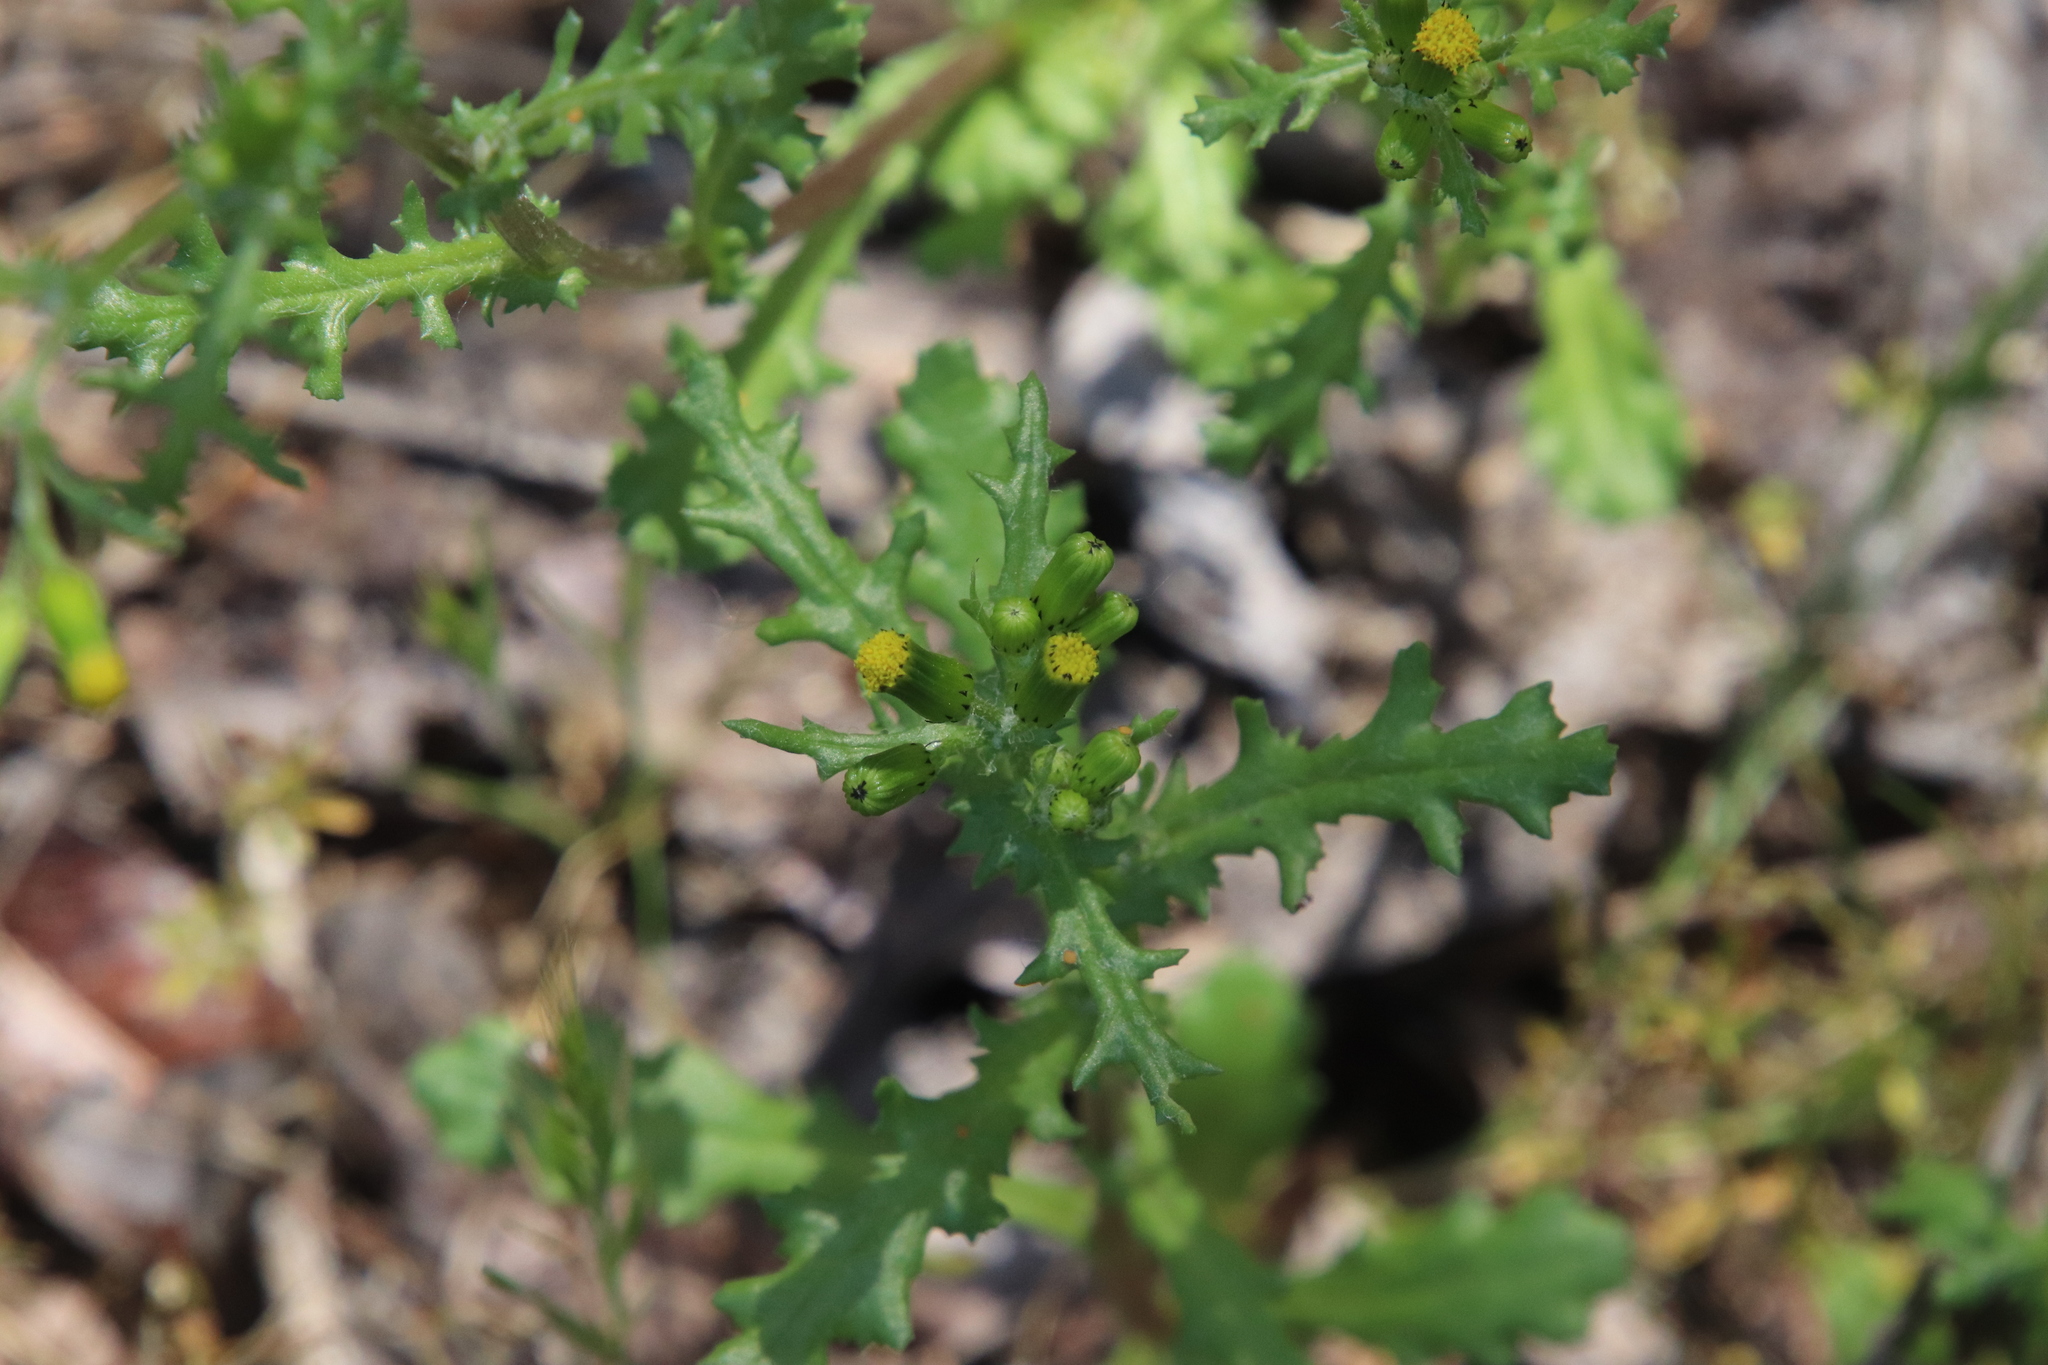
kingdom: Plantae
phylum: Tracheophyta
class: Magnoliopsida
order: Asterales
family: Asteraceae
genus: Senecio
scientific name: Senecio vulgaris
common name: Old-man-in-the-spring
